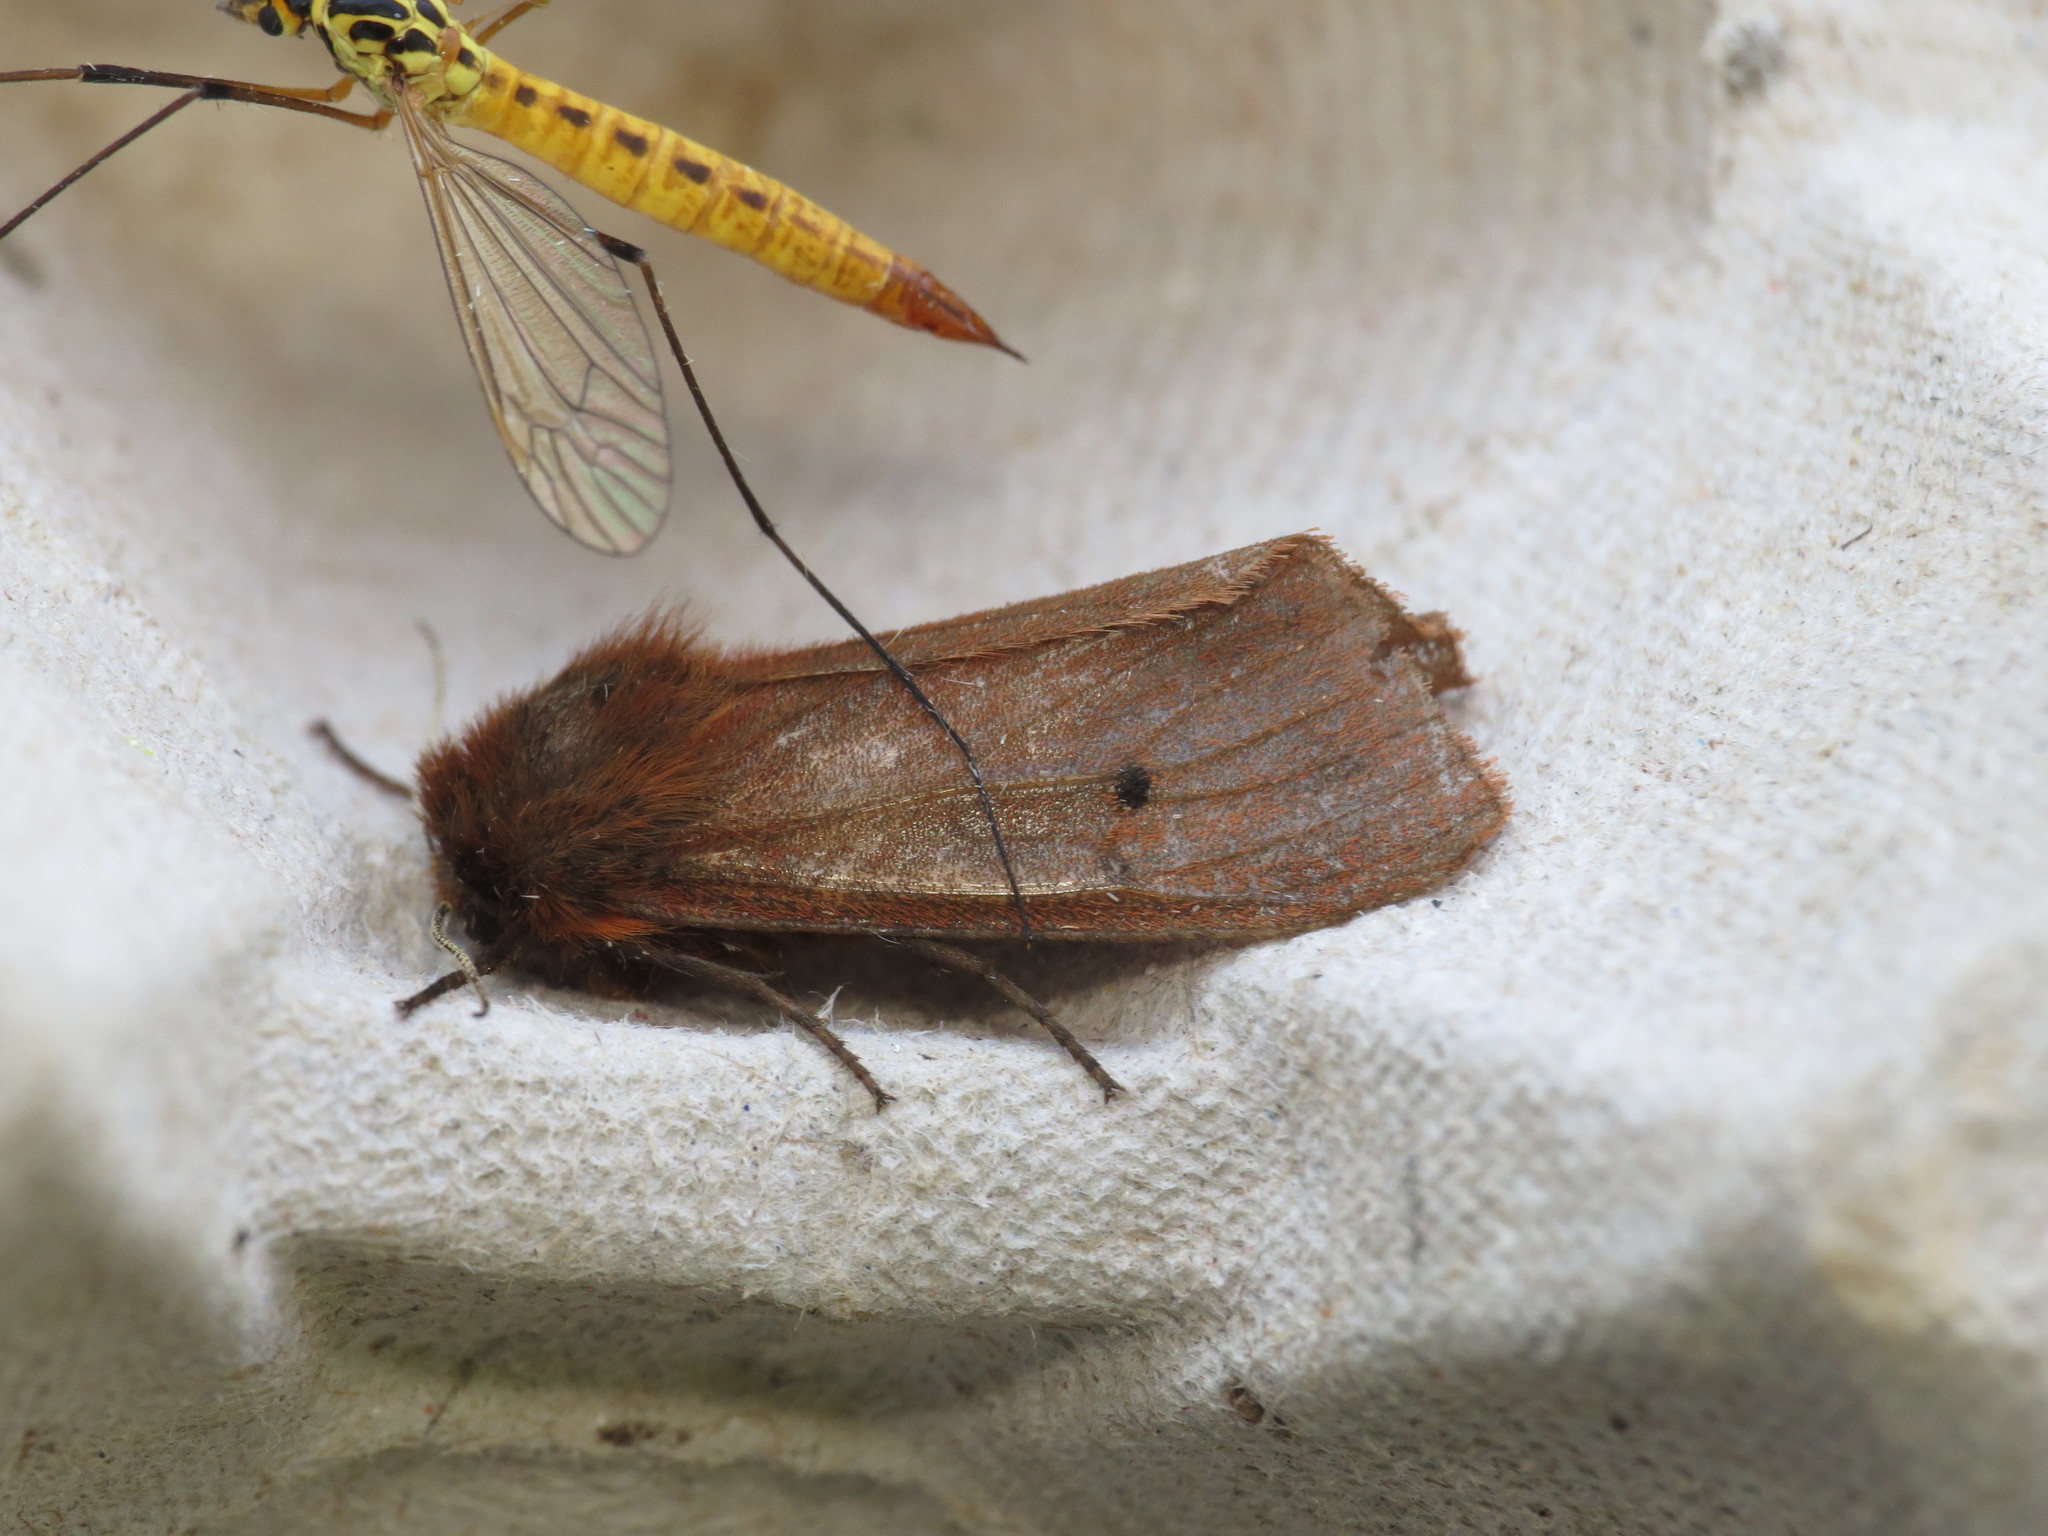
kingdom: Animalia
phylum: Arthropoda
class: Insecta
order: Lepidoptera
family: Erebidae
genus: Phragmatobia
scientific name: Phragmatobia fuliginosa
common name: Ruby tiger
